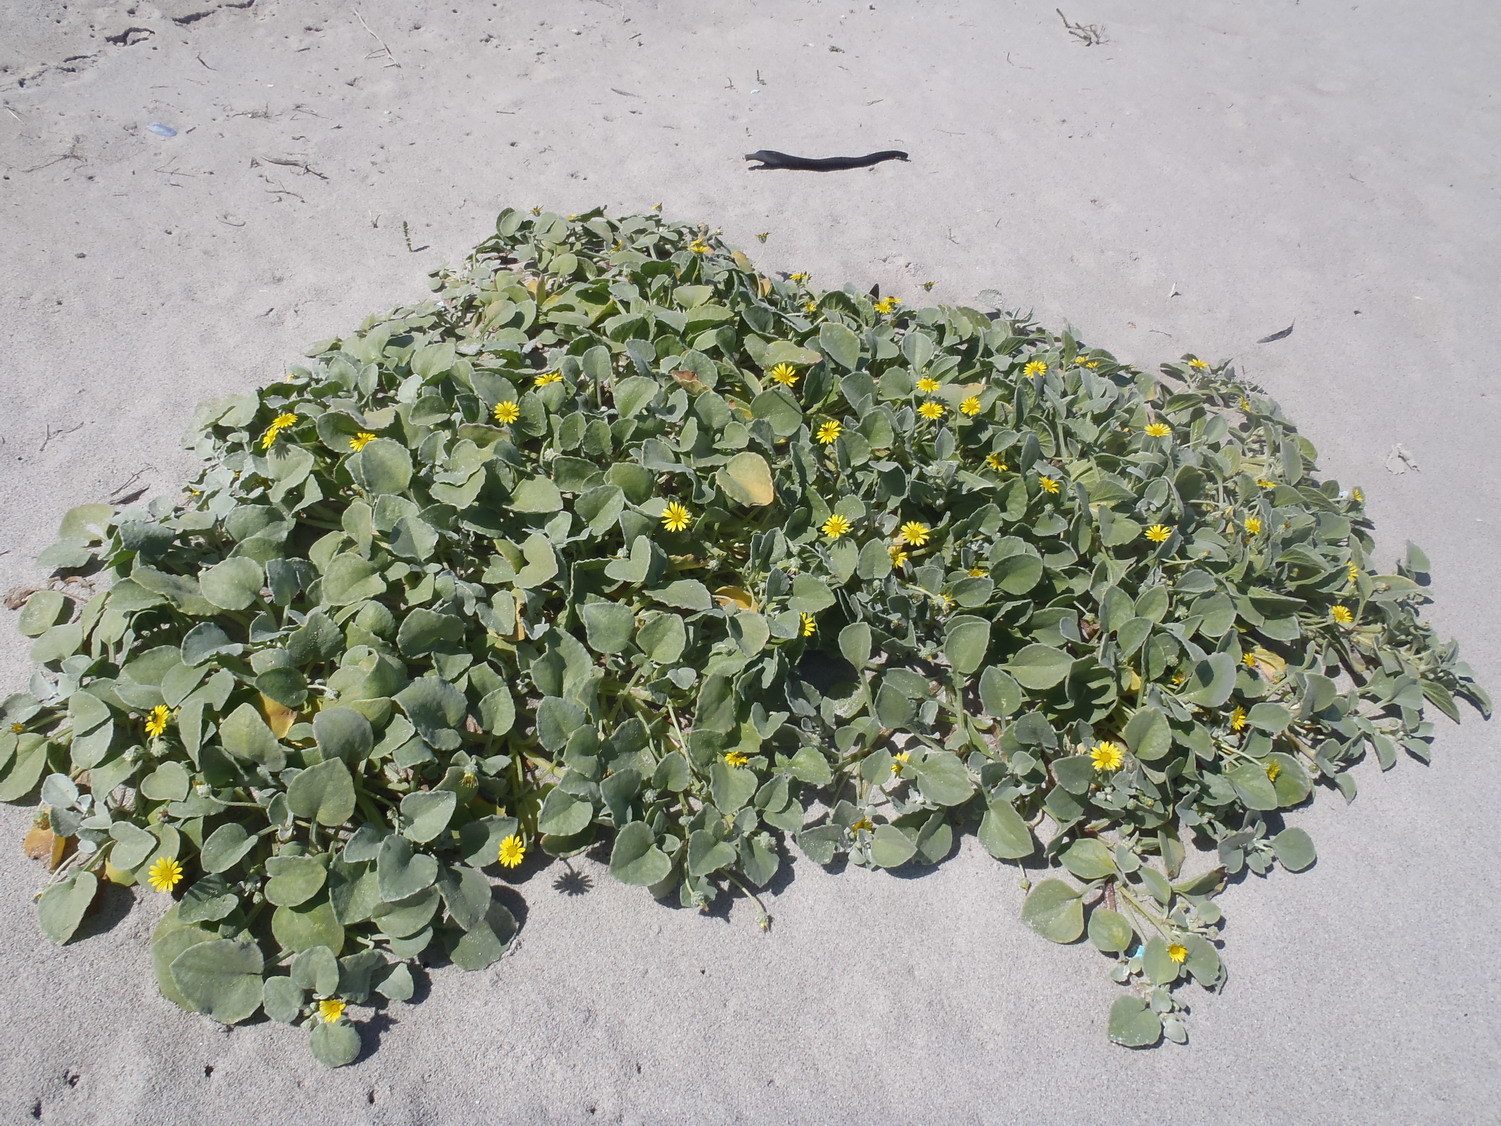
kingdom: Plantae
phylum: Tracheophyta
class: Magnoliopsida
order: Asterales
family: Asteraceae
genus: Arctotheca
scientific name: Arctotheca populifolia
